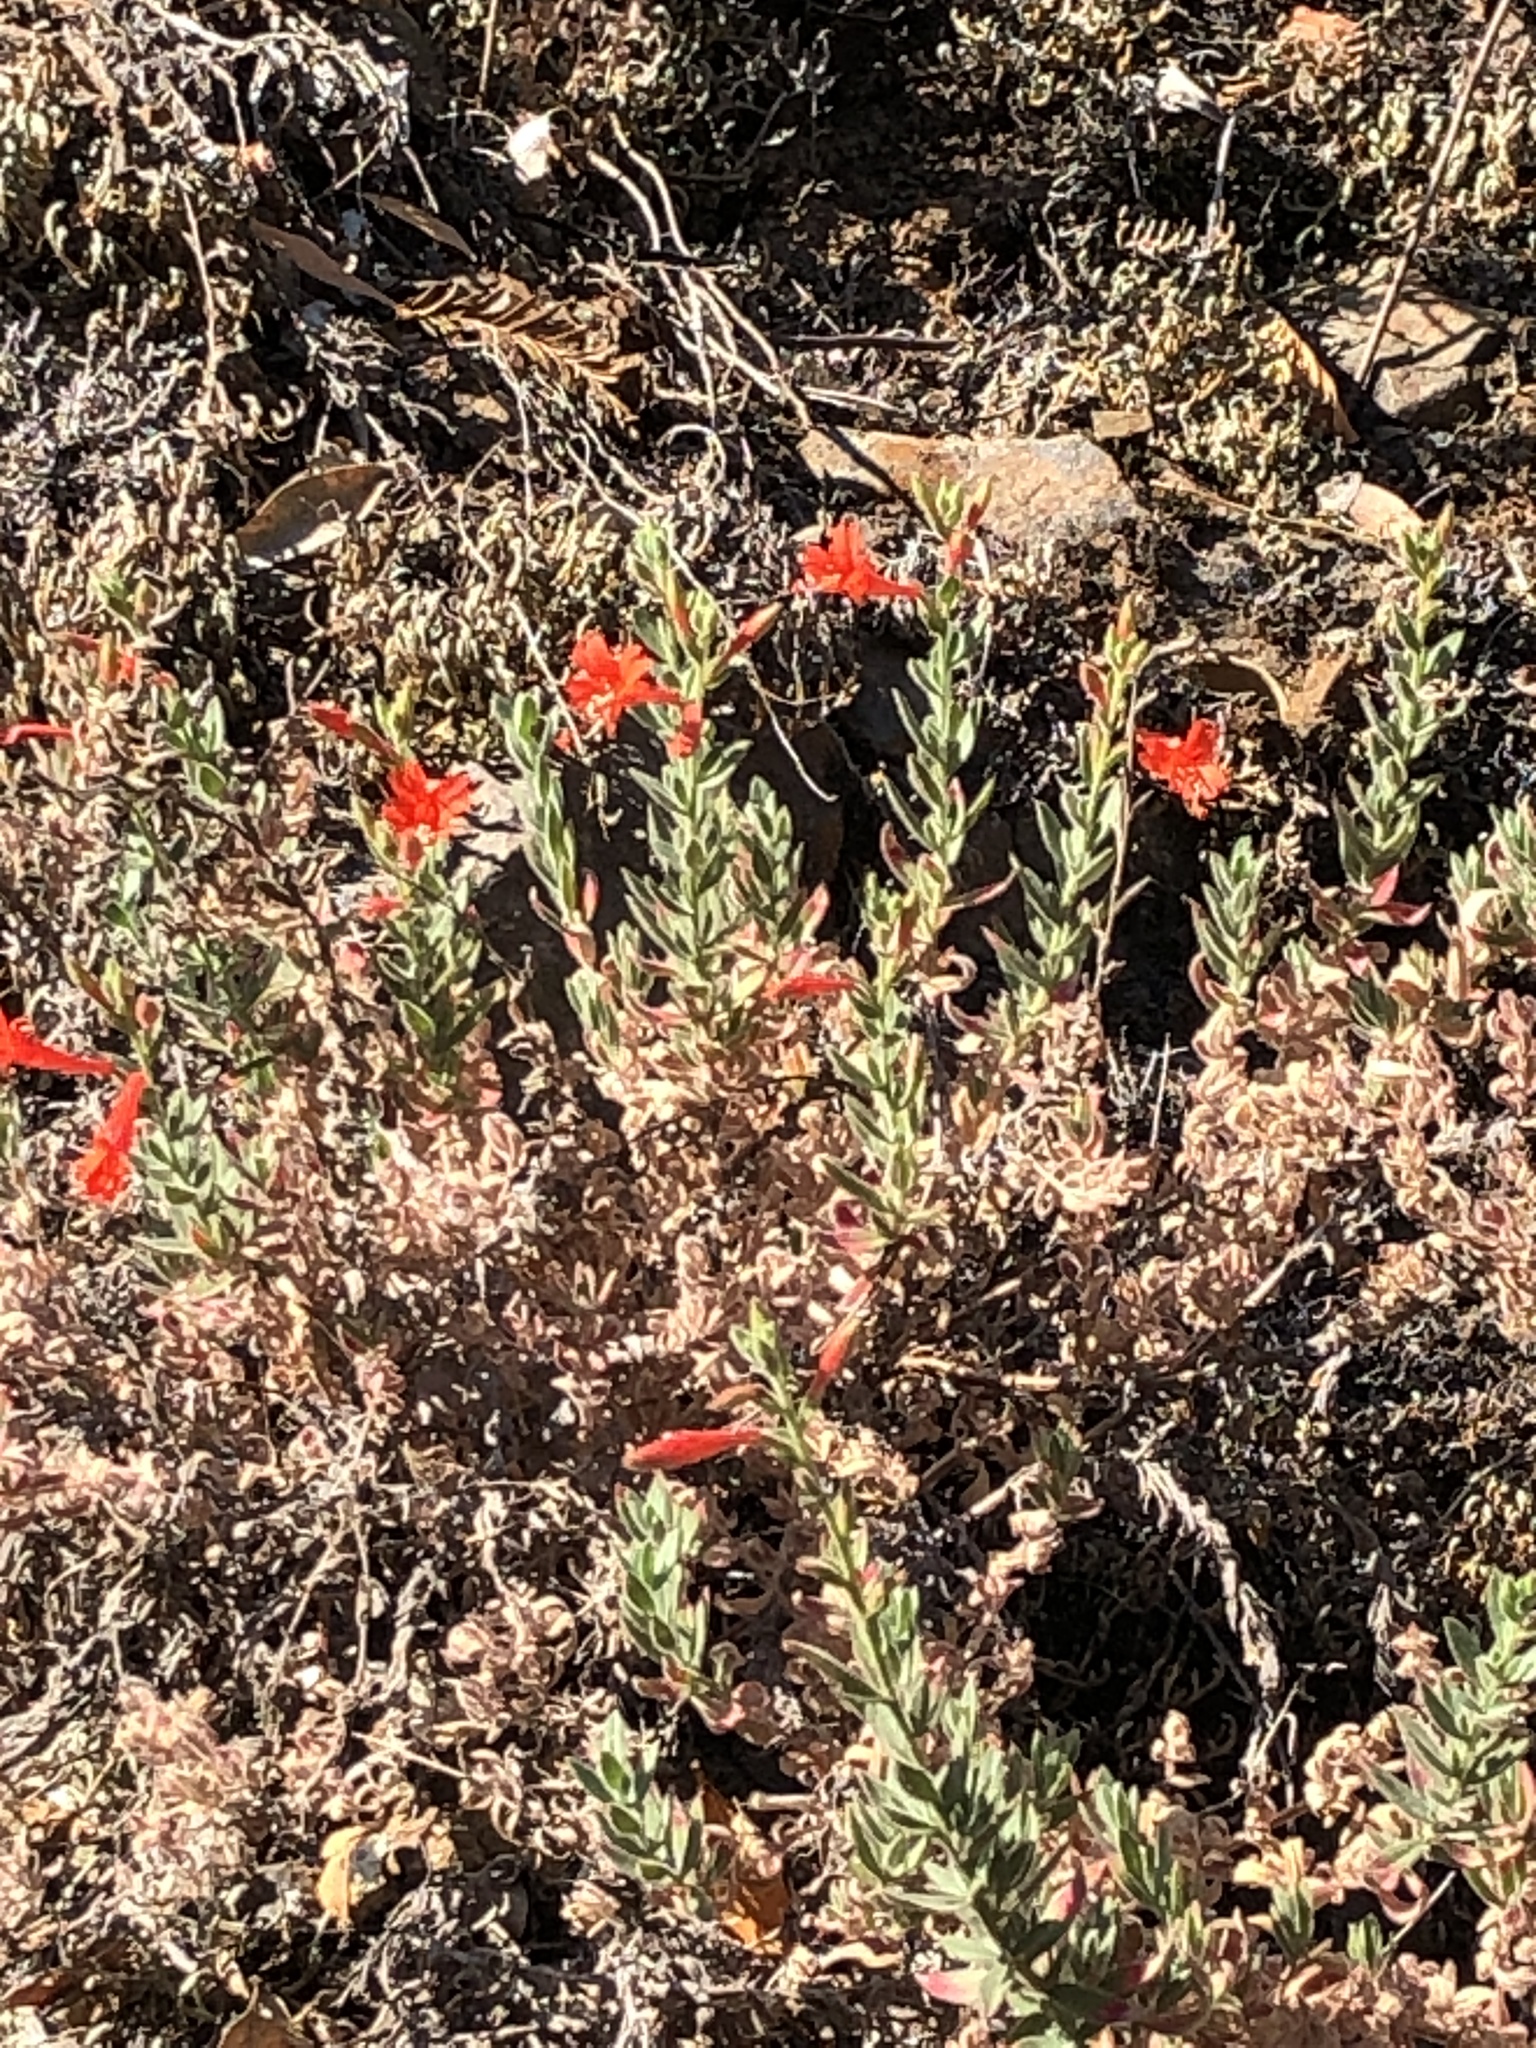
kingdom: Plantae
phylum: Tracheophyta
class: Magnoliopsida
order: Myrtales
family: Onagraceae
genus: Epilobium
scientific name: Epilobium canum
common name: California-fuchsia
